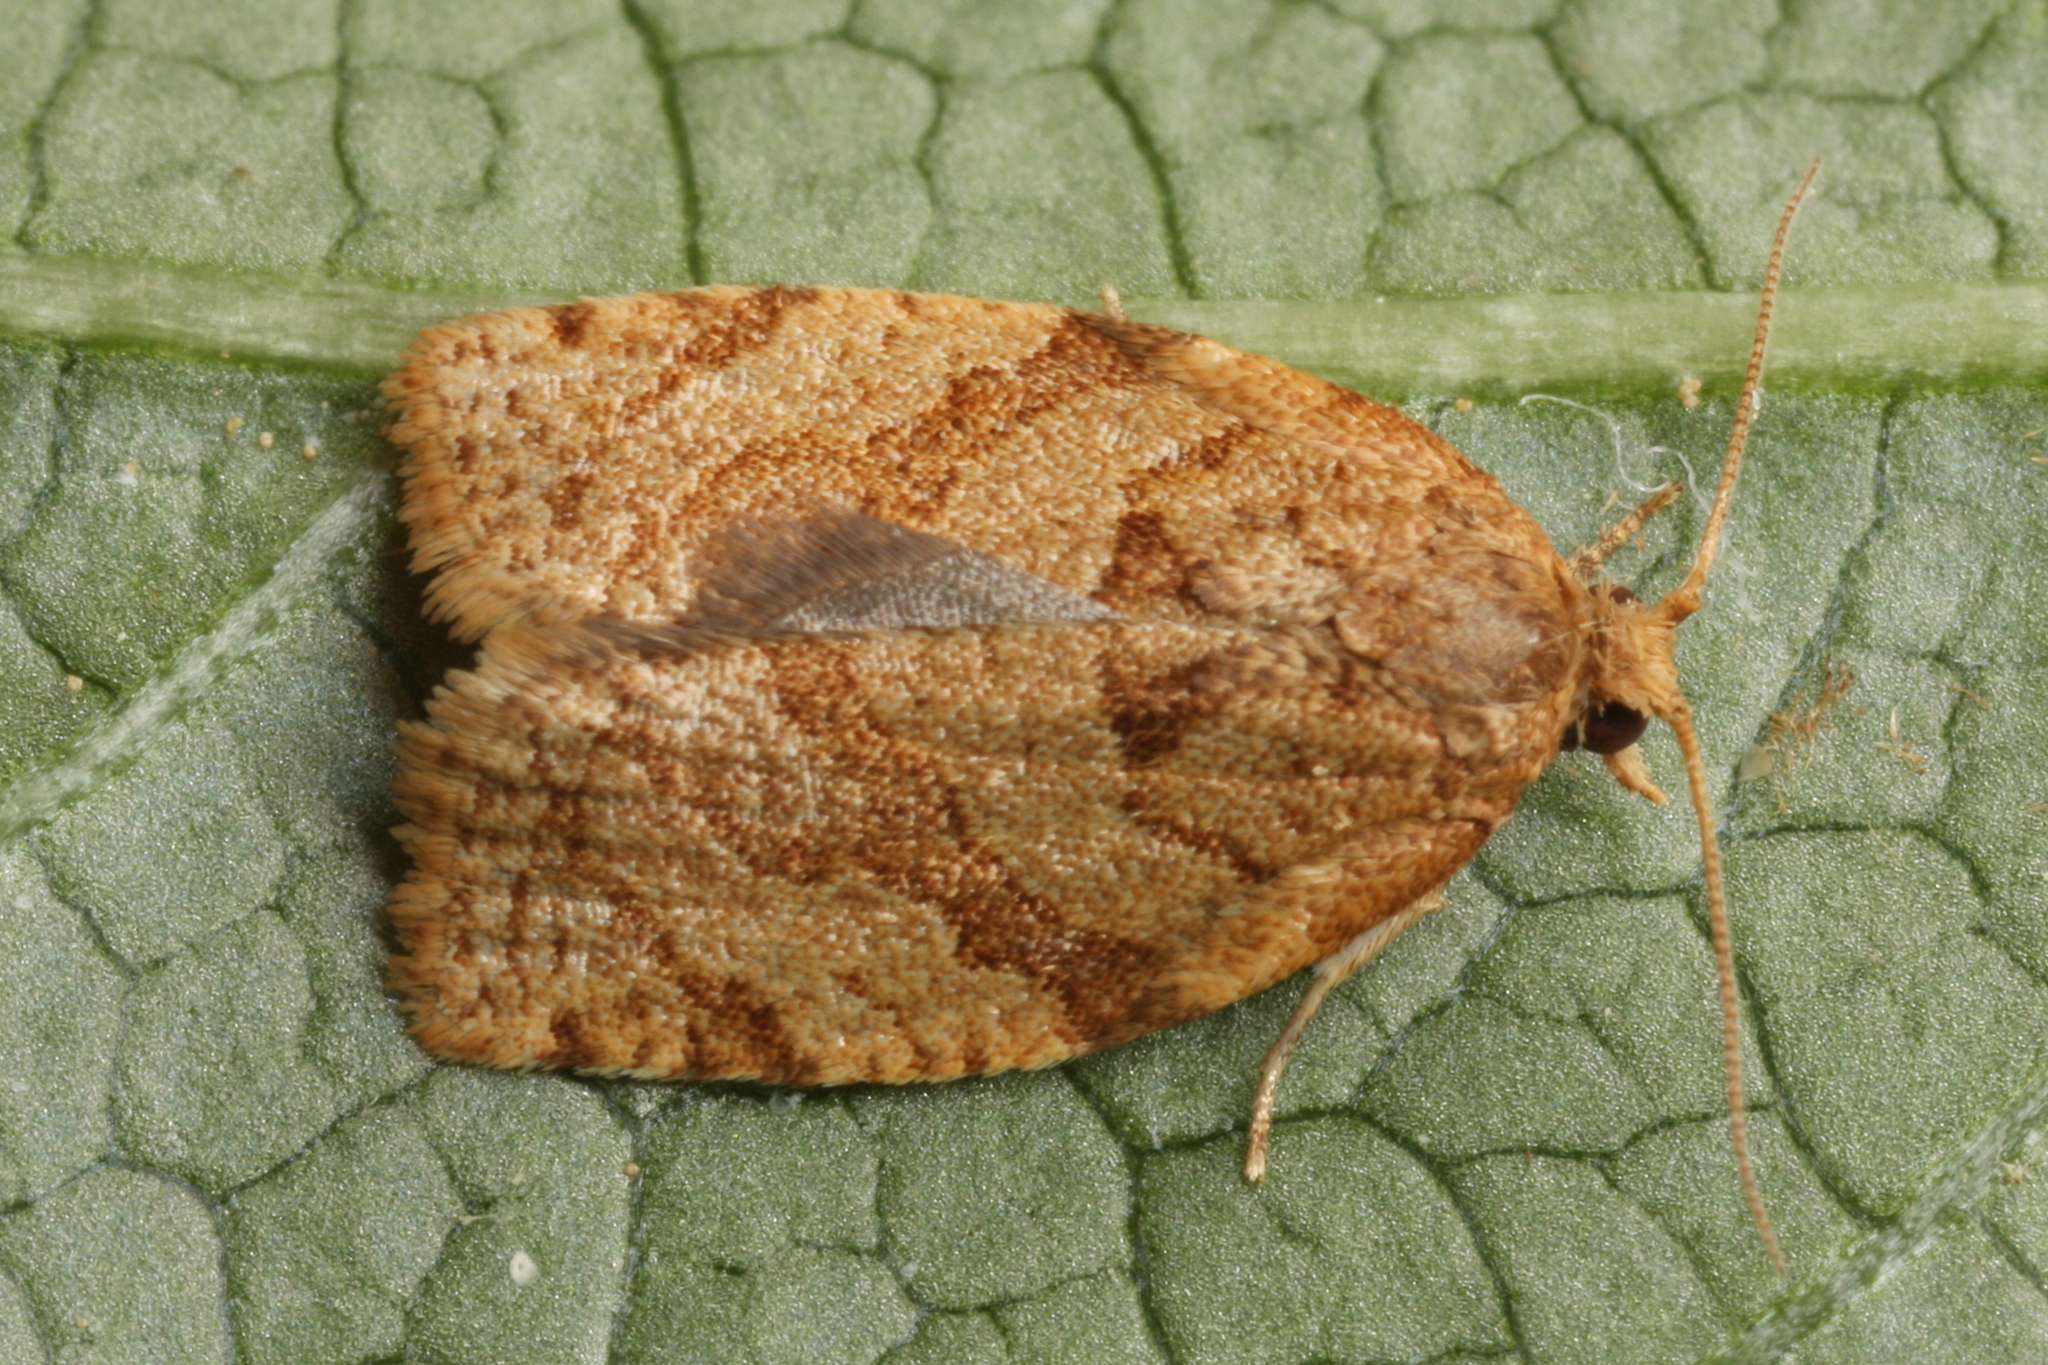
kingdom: Animalia
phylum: Arthropoda
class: Insecta
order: Lepidoptera
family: Tortricidae
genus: Adoxophyes
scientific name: Adoxophyes orana
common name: Summer fruit tortrix
